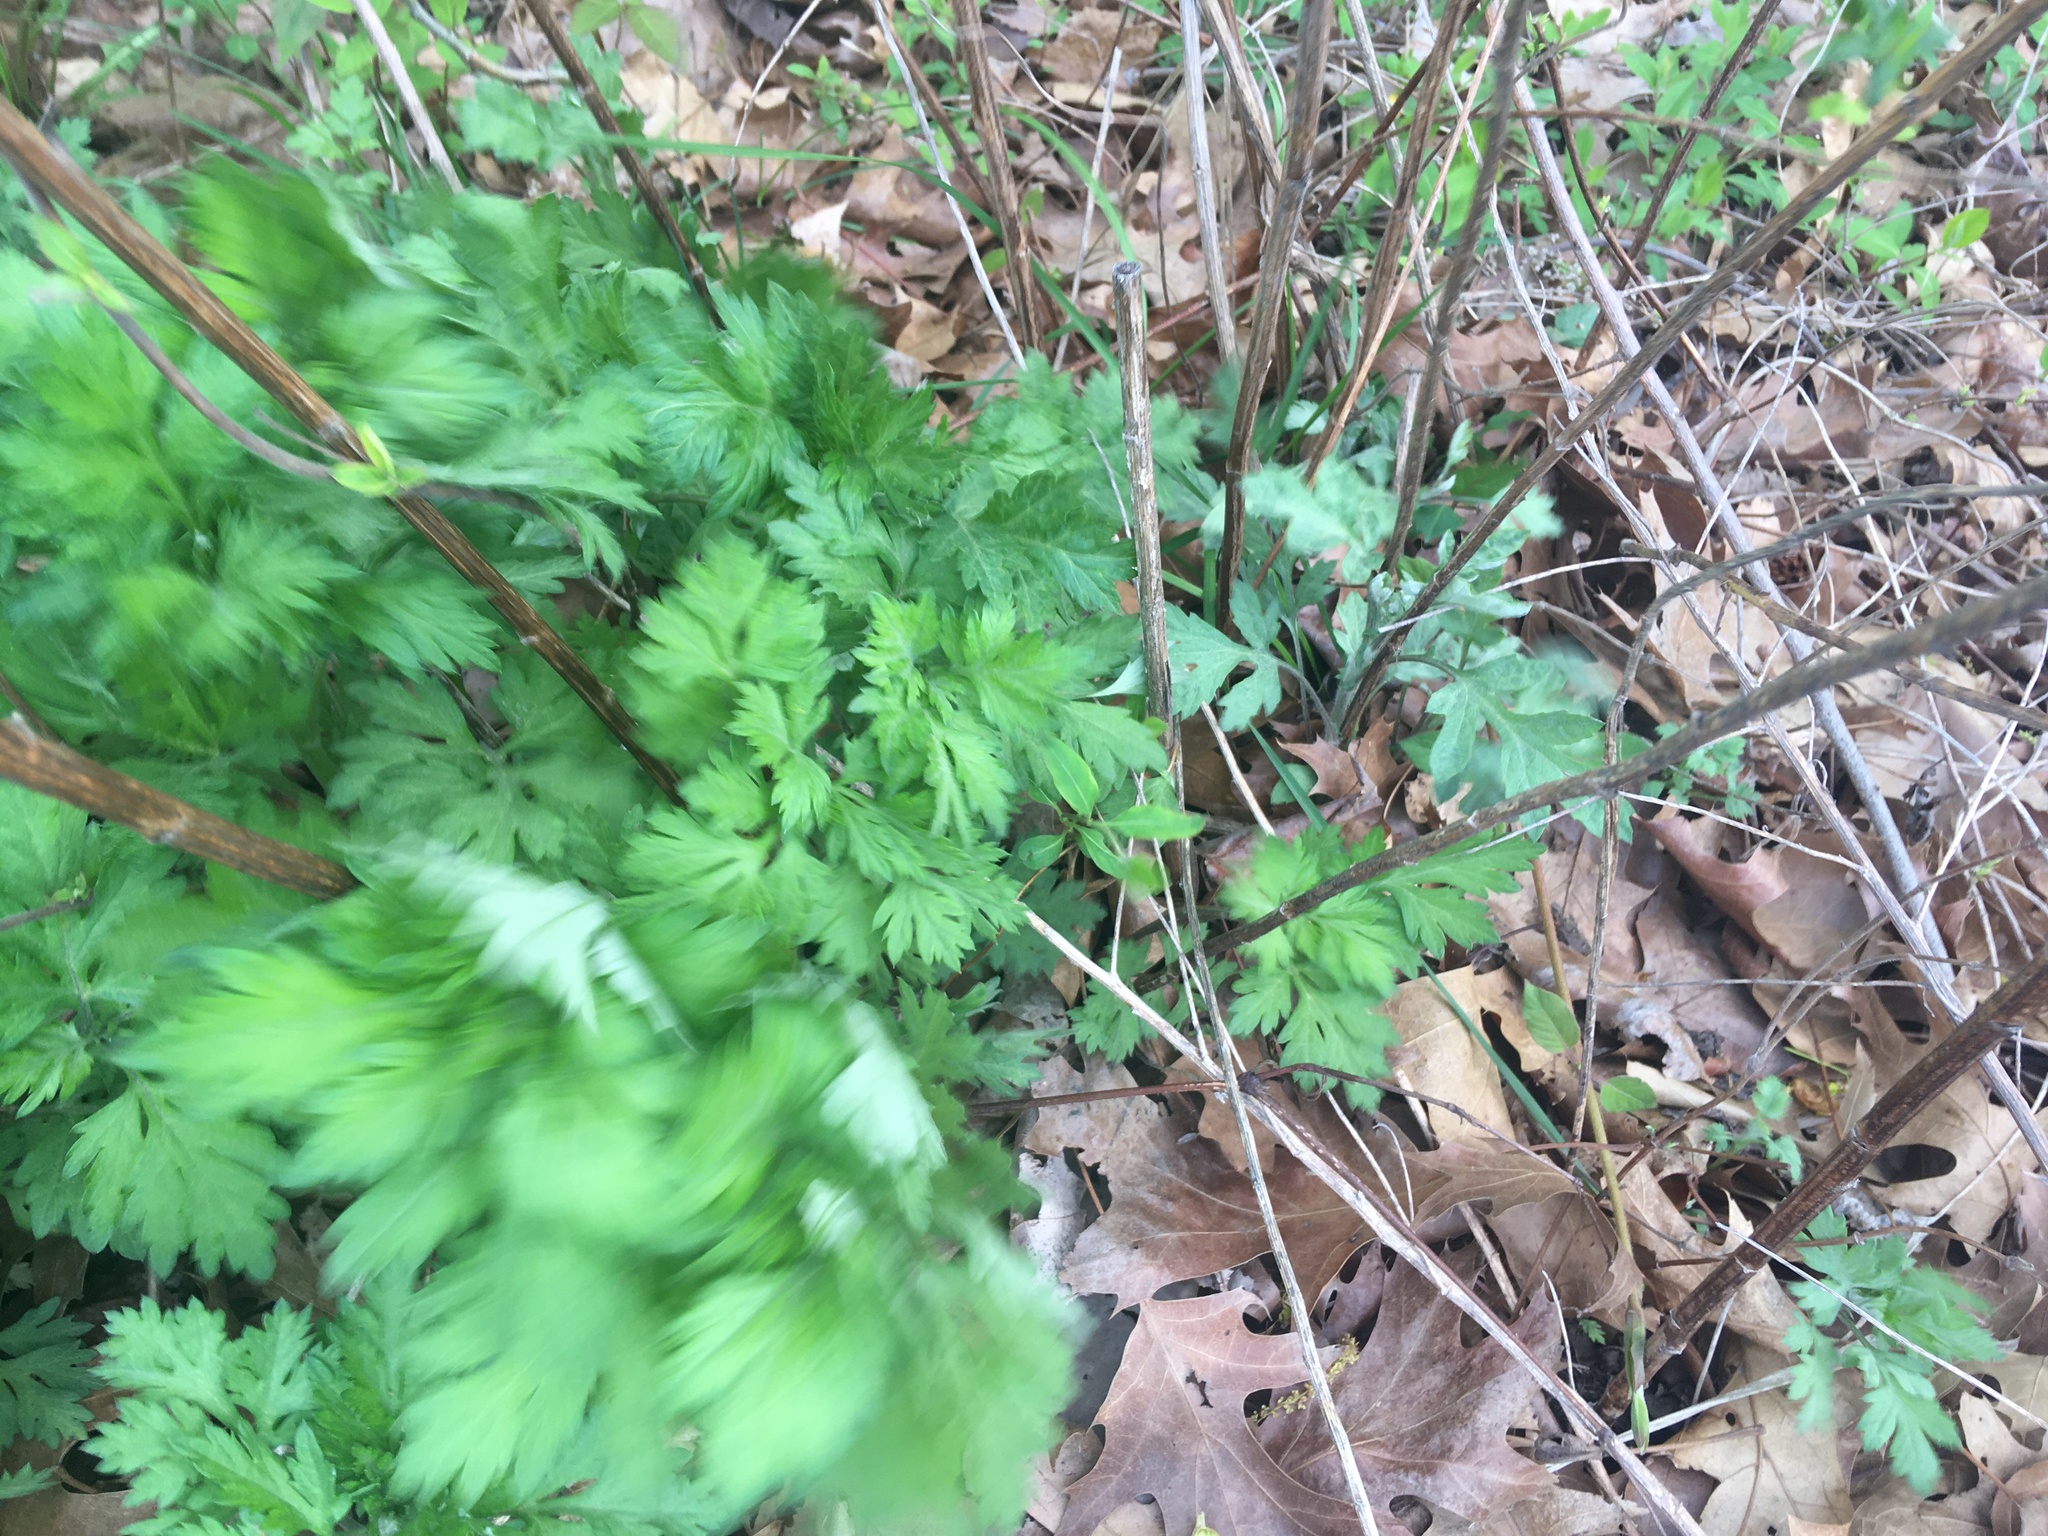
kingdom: Plantae
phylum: Tracheophyta
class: Magnoliopsida
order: Asterales
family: Asteraceae
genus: Artemisia
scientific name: Artemisia vulgaris
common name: Mugwort
